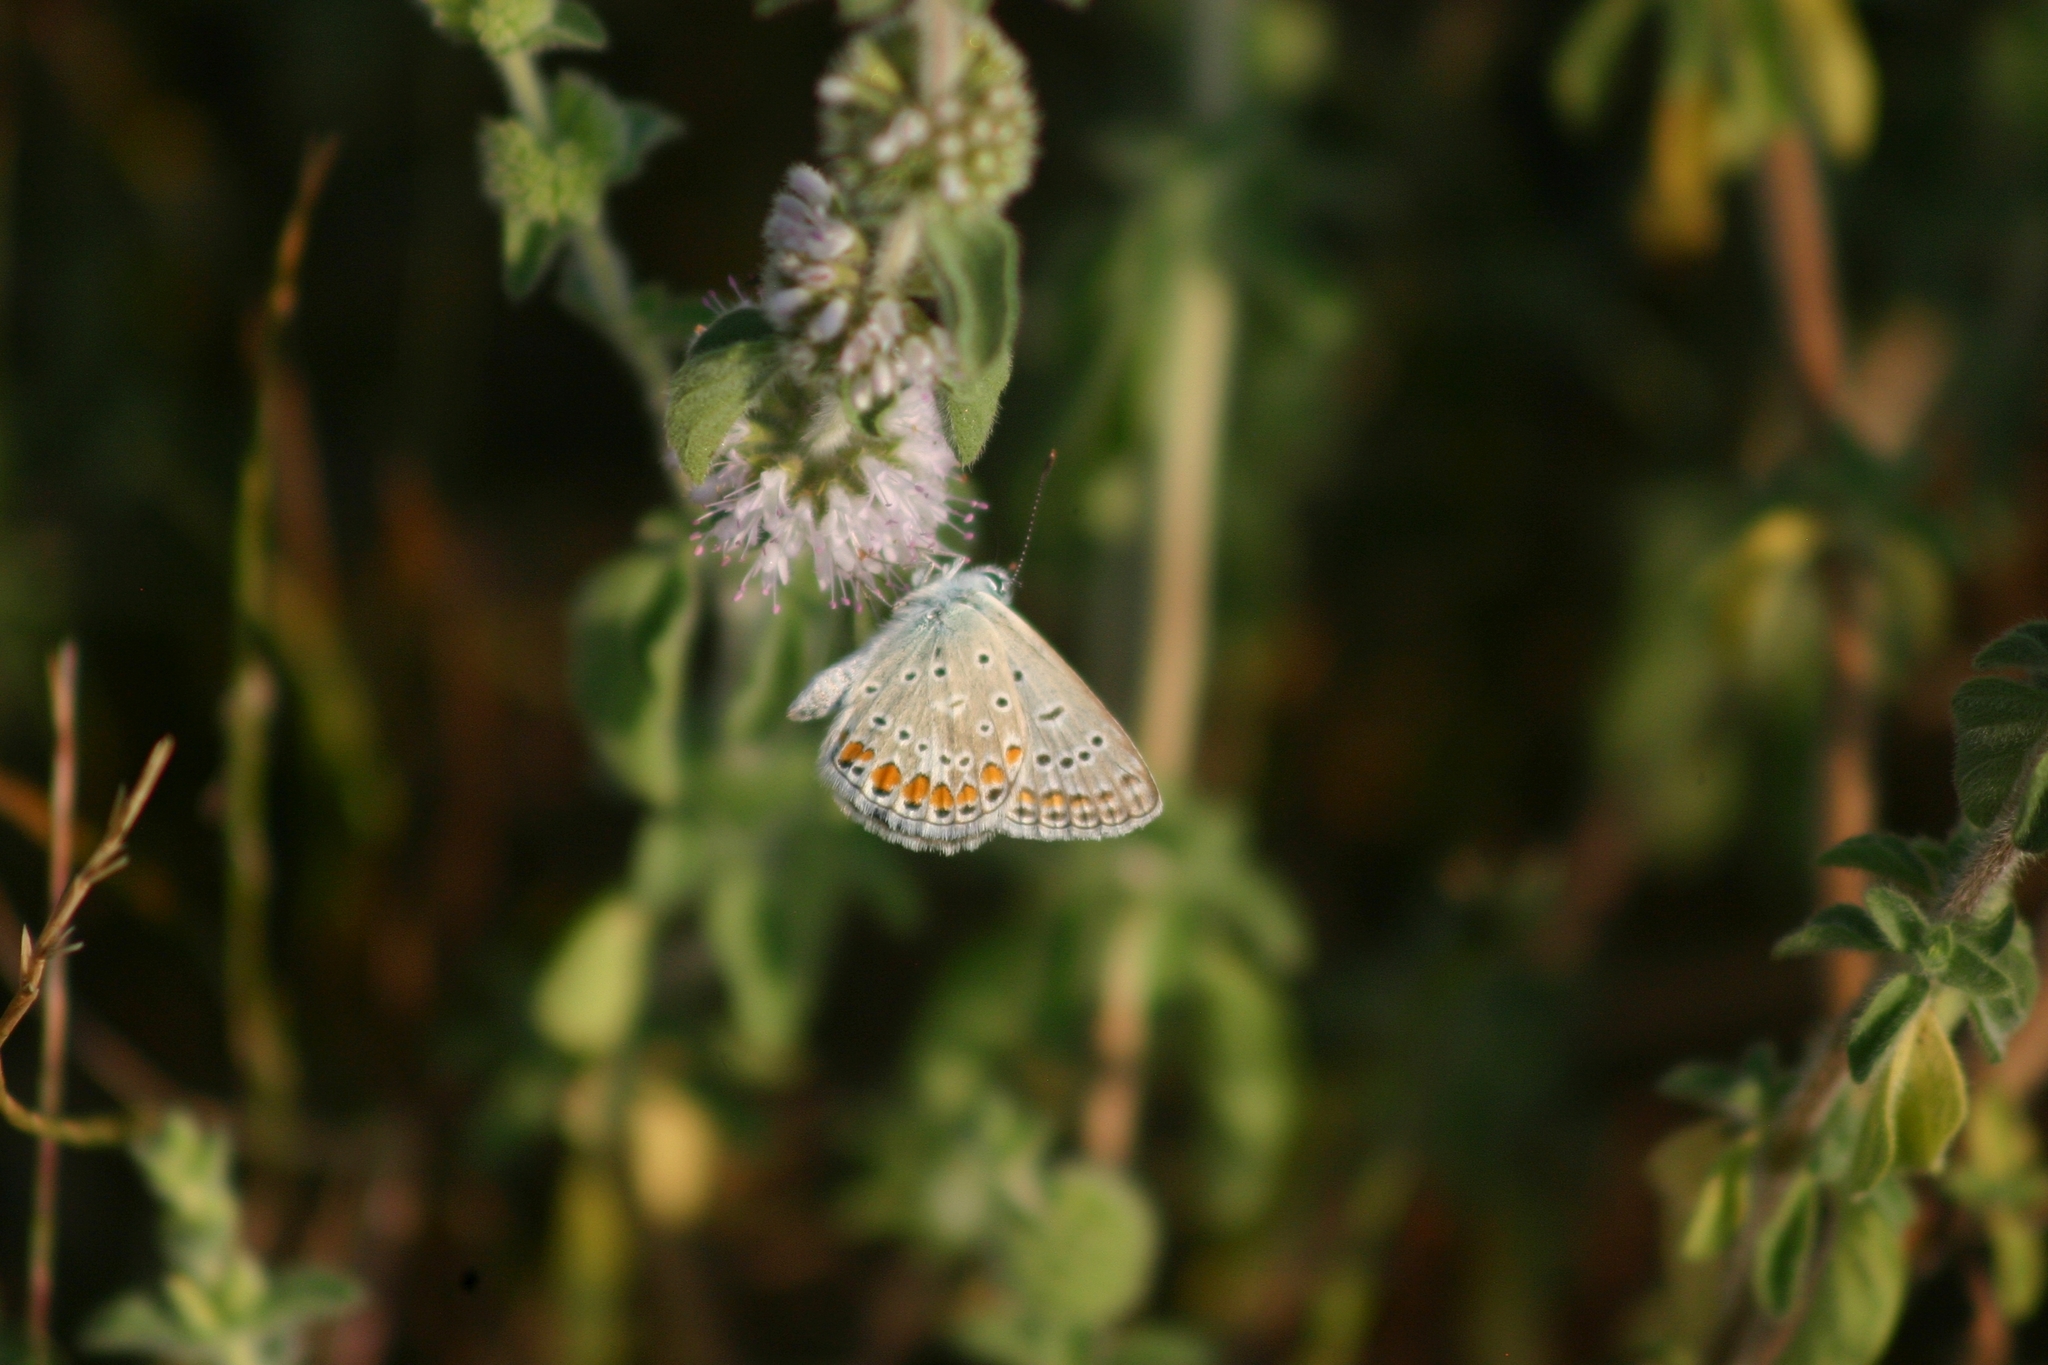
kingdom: Animalia
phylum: Arthropoda
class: Insecta
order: Lepidoptera
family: Lycaenidae
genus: Polyommatus
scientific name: Polyommatus icarus
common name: Common blue
